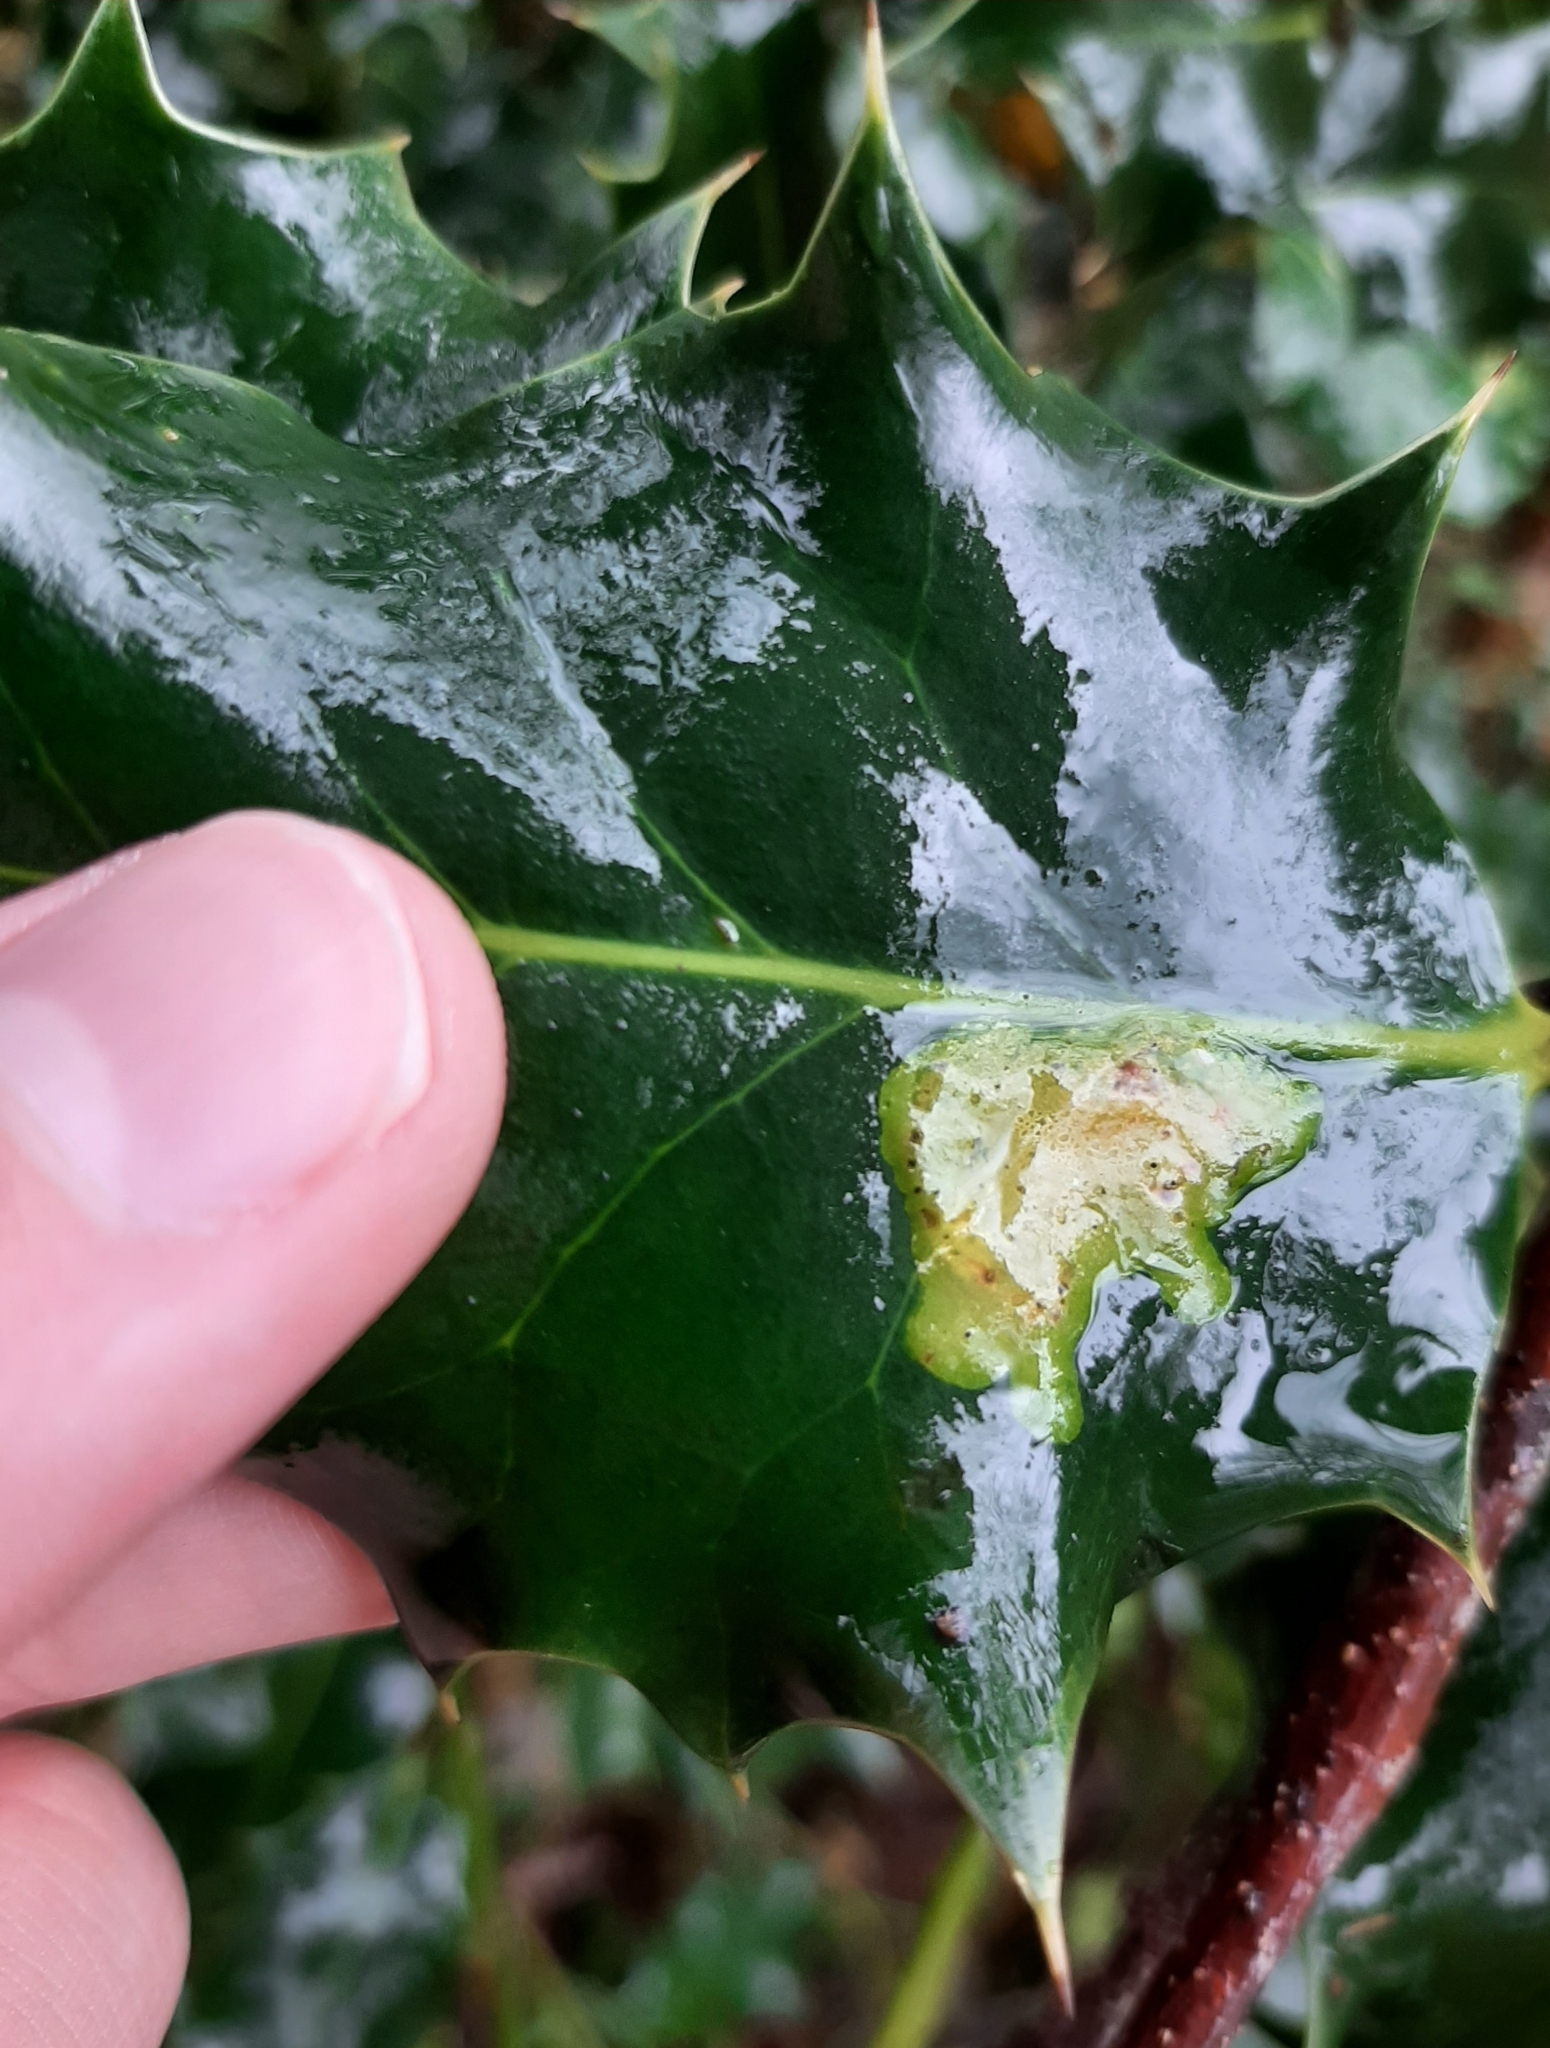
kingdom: Animalia
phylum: Arthropoda
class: Insecta
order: Diptera
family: Agromyzidae
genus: Phytomyza
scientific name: Phytomyza ilicis
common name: Holly leafminer
